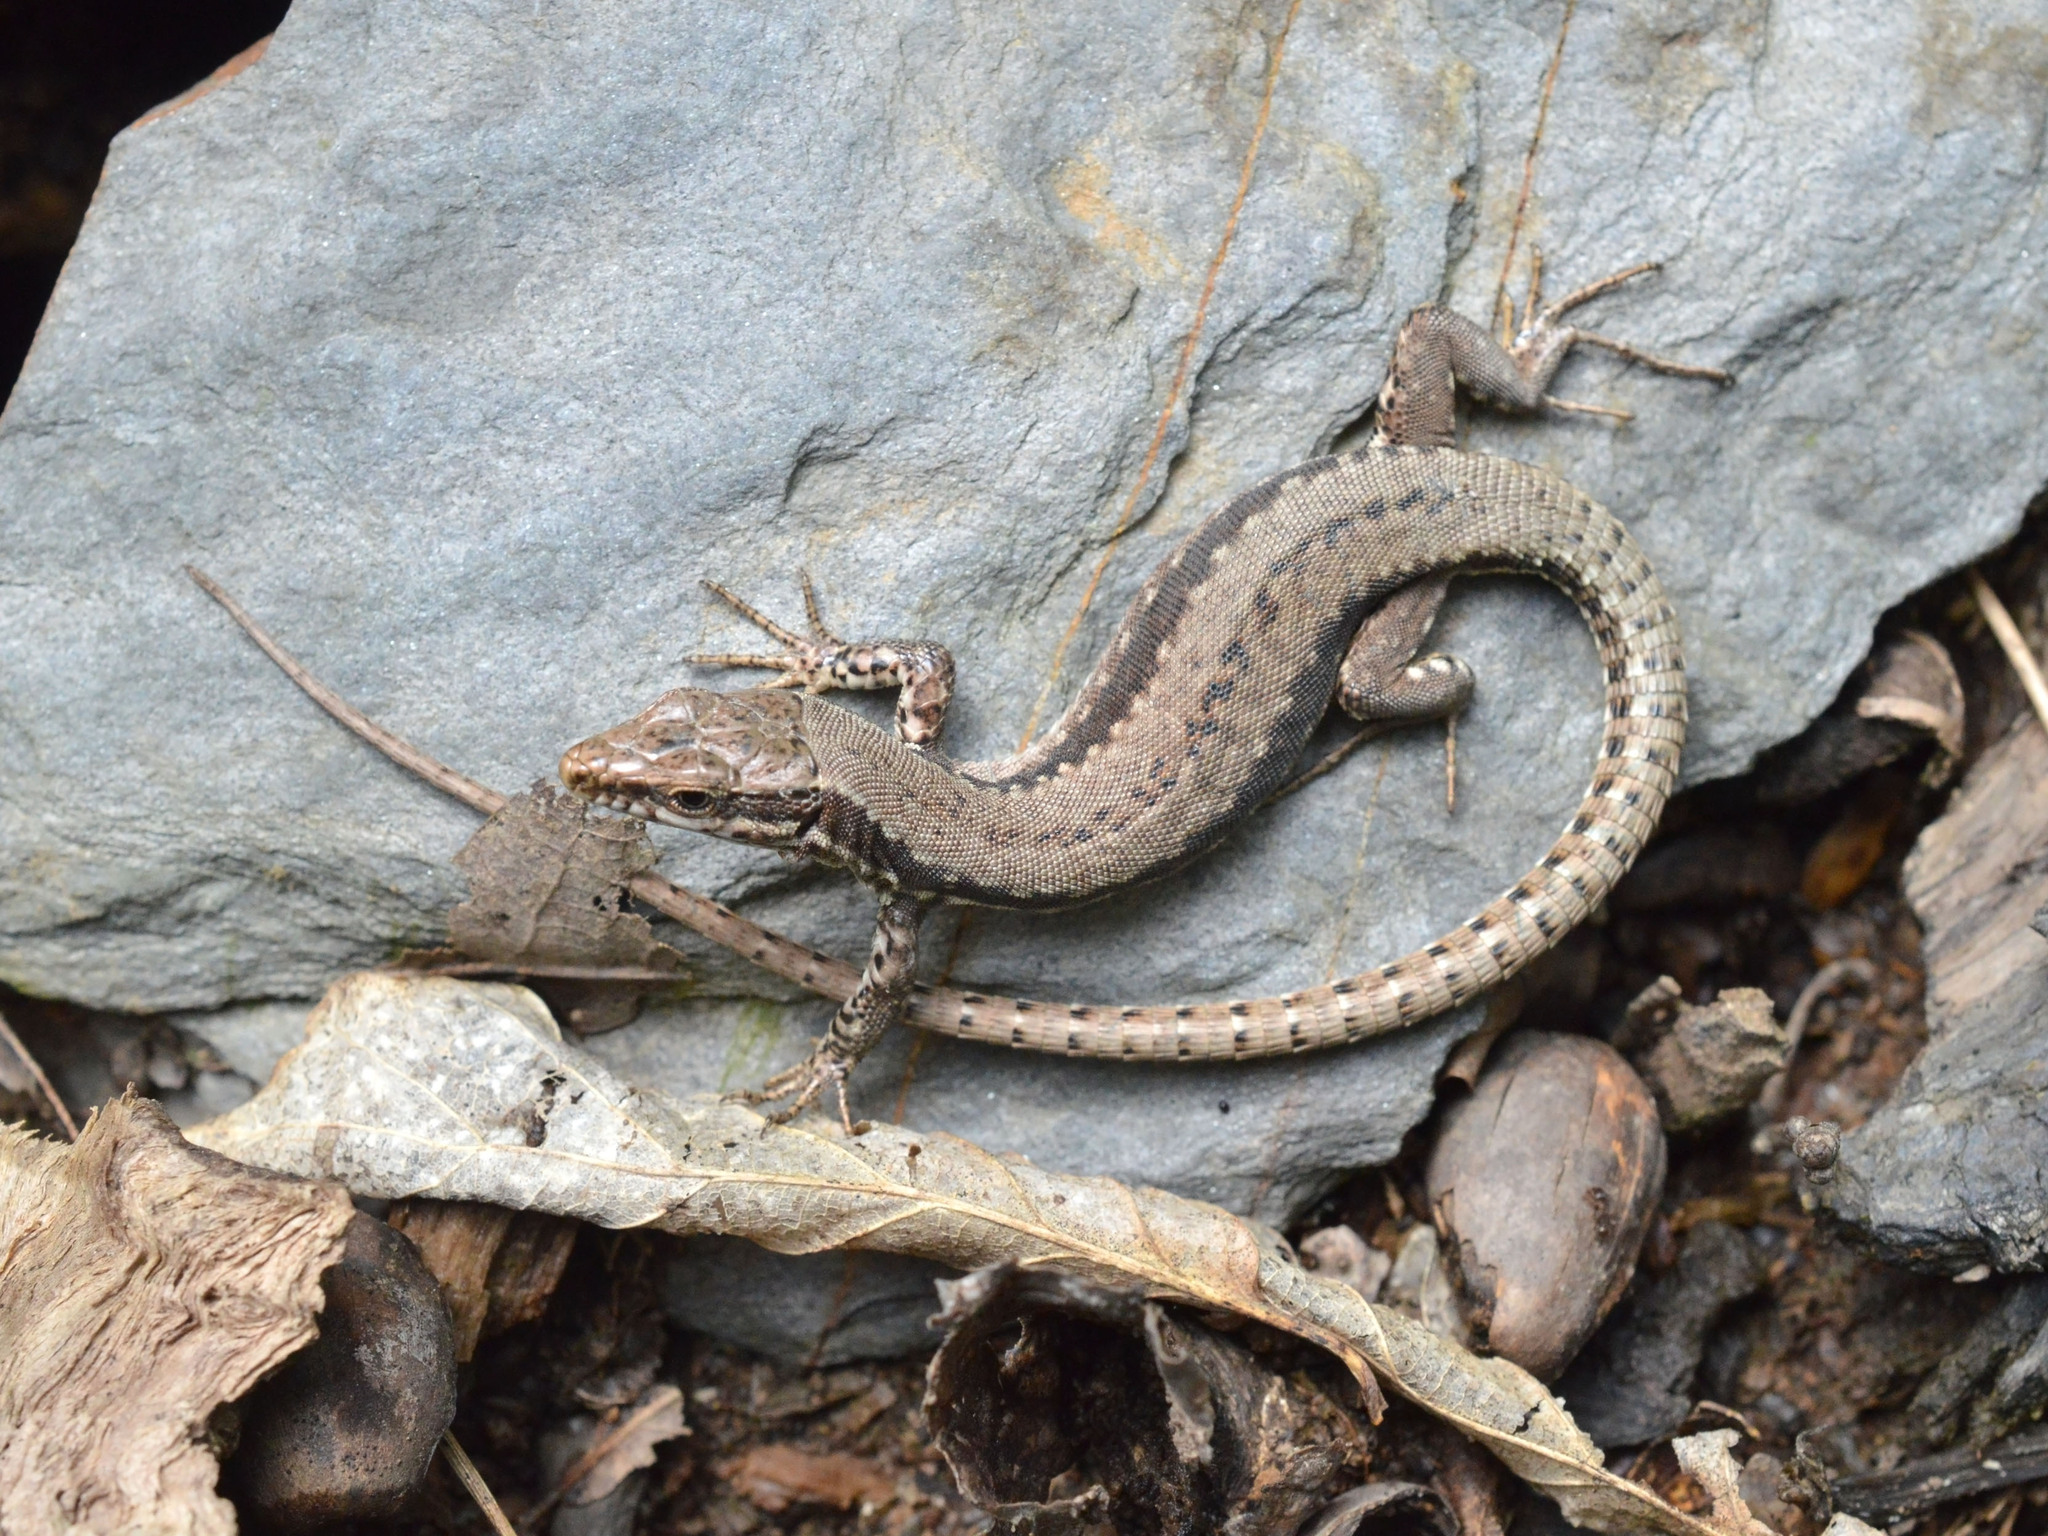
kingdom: Animalia
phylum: Chordata
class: Squamata
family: Lacertidae
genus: Podarcis
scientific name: Podarcis muralis
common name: Common wall lizard
